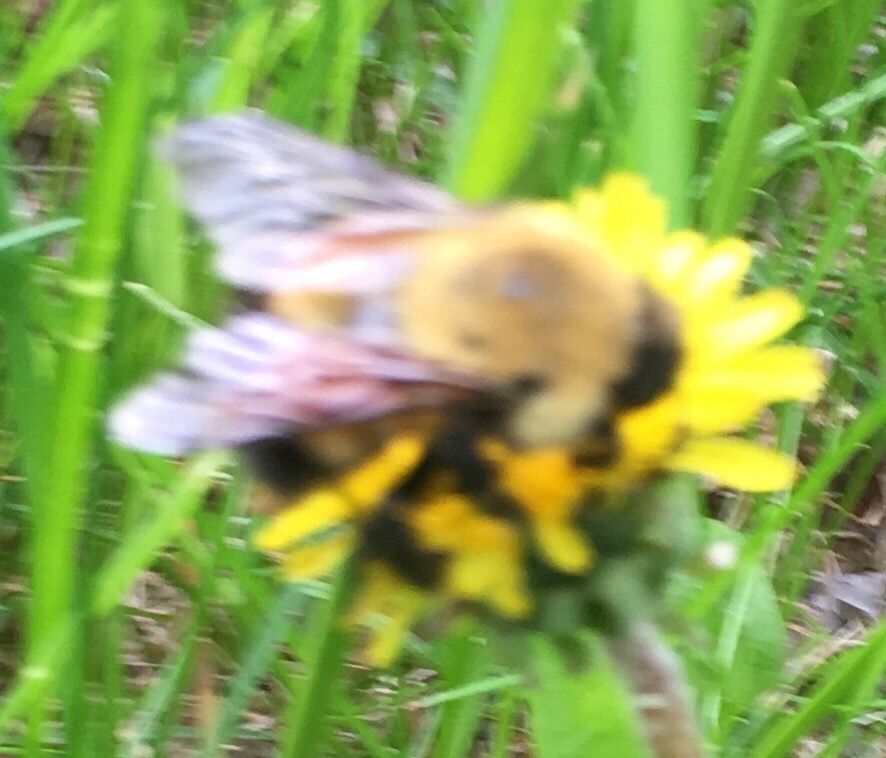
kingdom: Animalia
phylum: Arthropoda
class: Insecta
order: Hymenoptera
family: Apidae
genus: Bombus
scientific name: Bombus perplexus
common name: Confusing bumble bee
